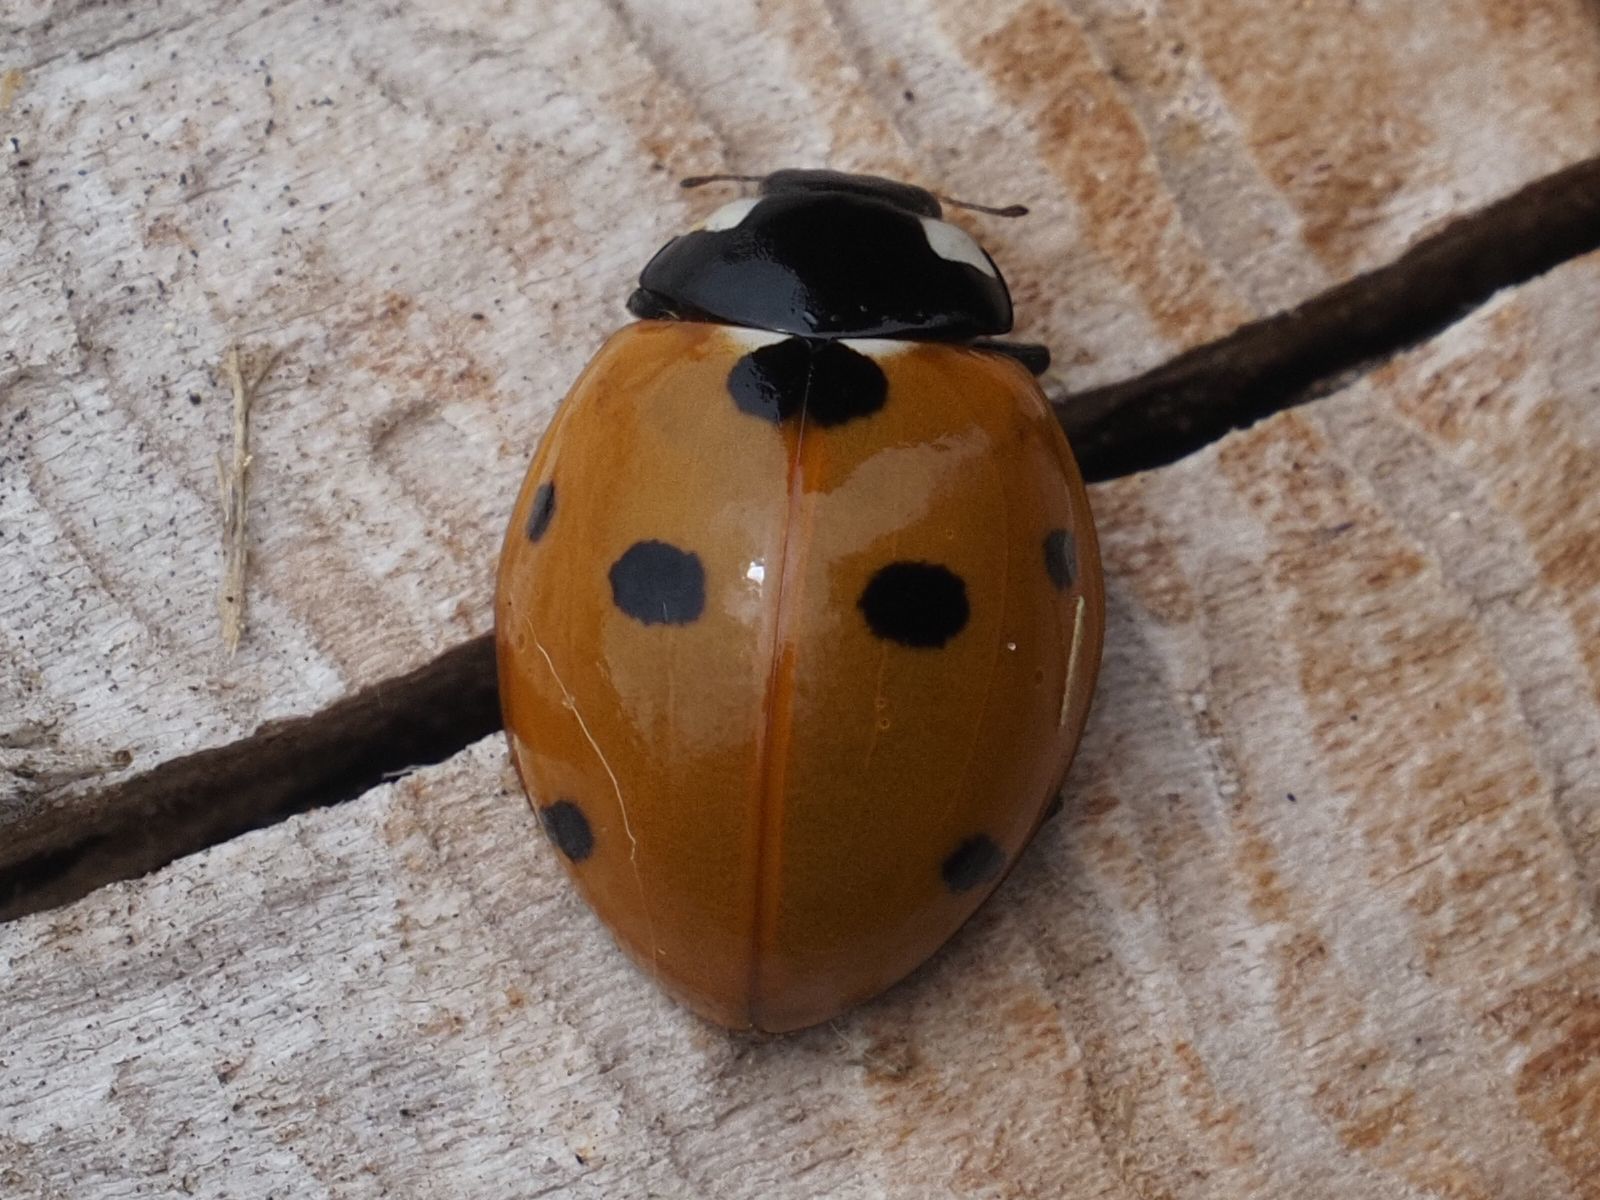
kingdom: Animalia
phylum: Arthropoda
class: Insecta
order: Coleoptera
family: Coccinellidae
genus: Coccinella
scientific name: Coccinella septempunctata
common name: Sevenspotted lady beetle
